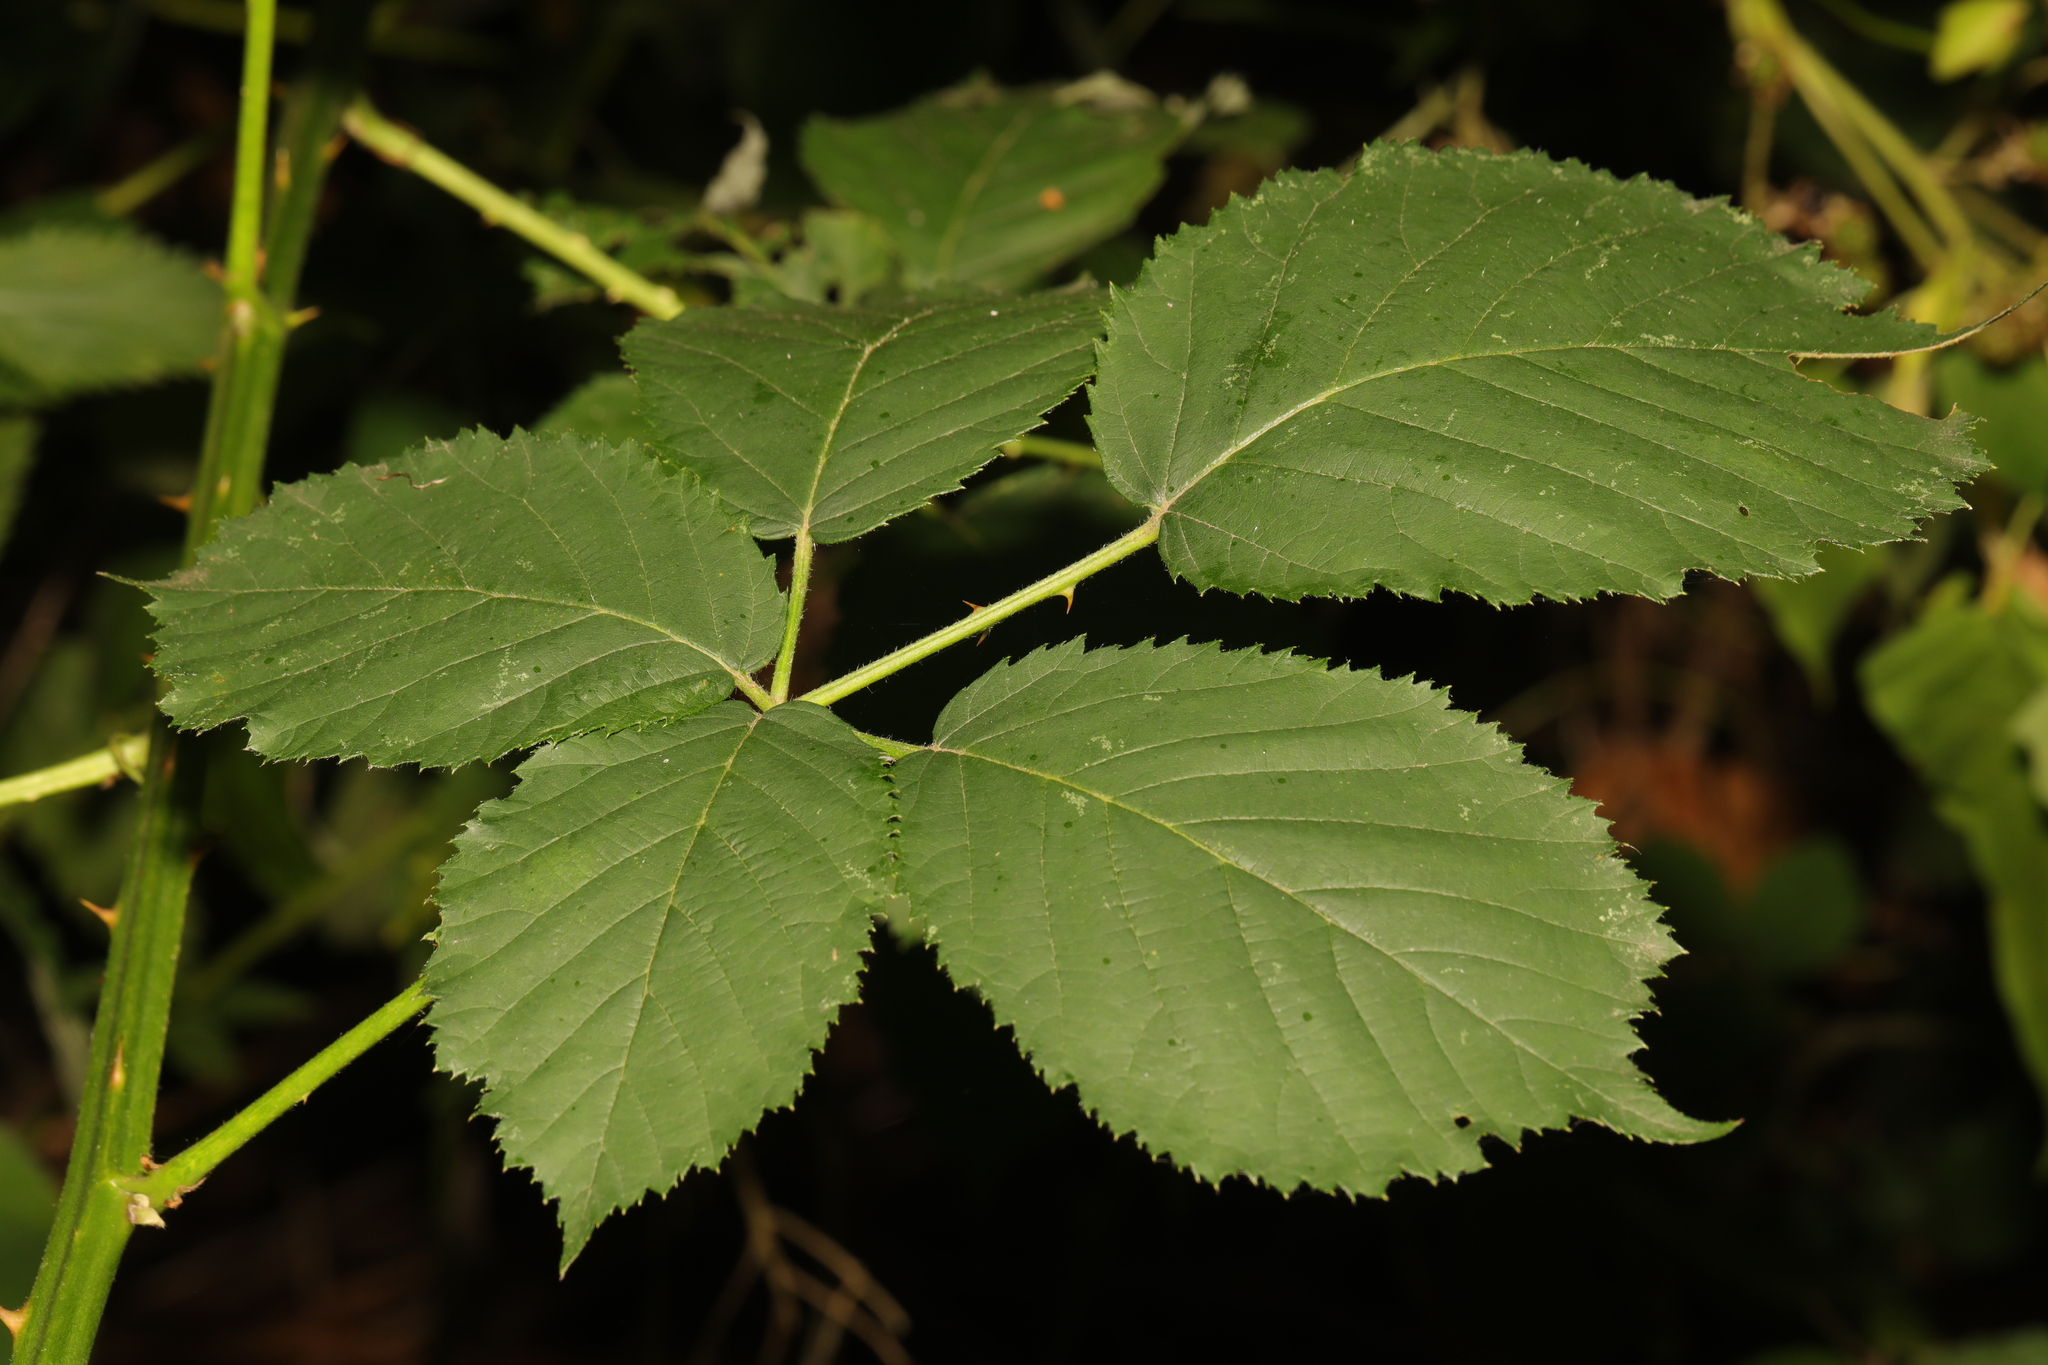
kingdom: Plantae
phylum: Tracheophyta
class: Magnoliopsida
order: Rosales
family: Rosaceae
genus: Rubus
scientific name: Rubus armeniacus
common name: Himalayan blackberry
